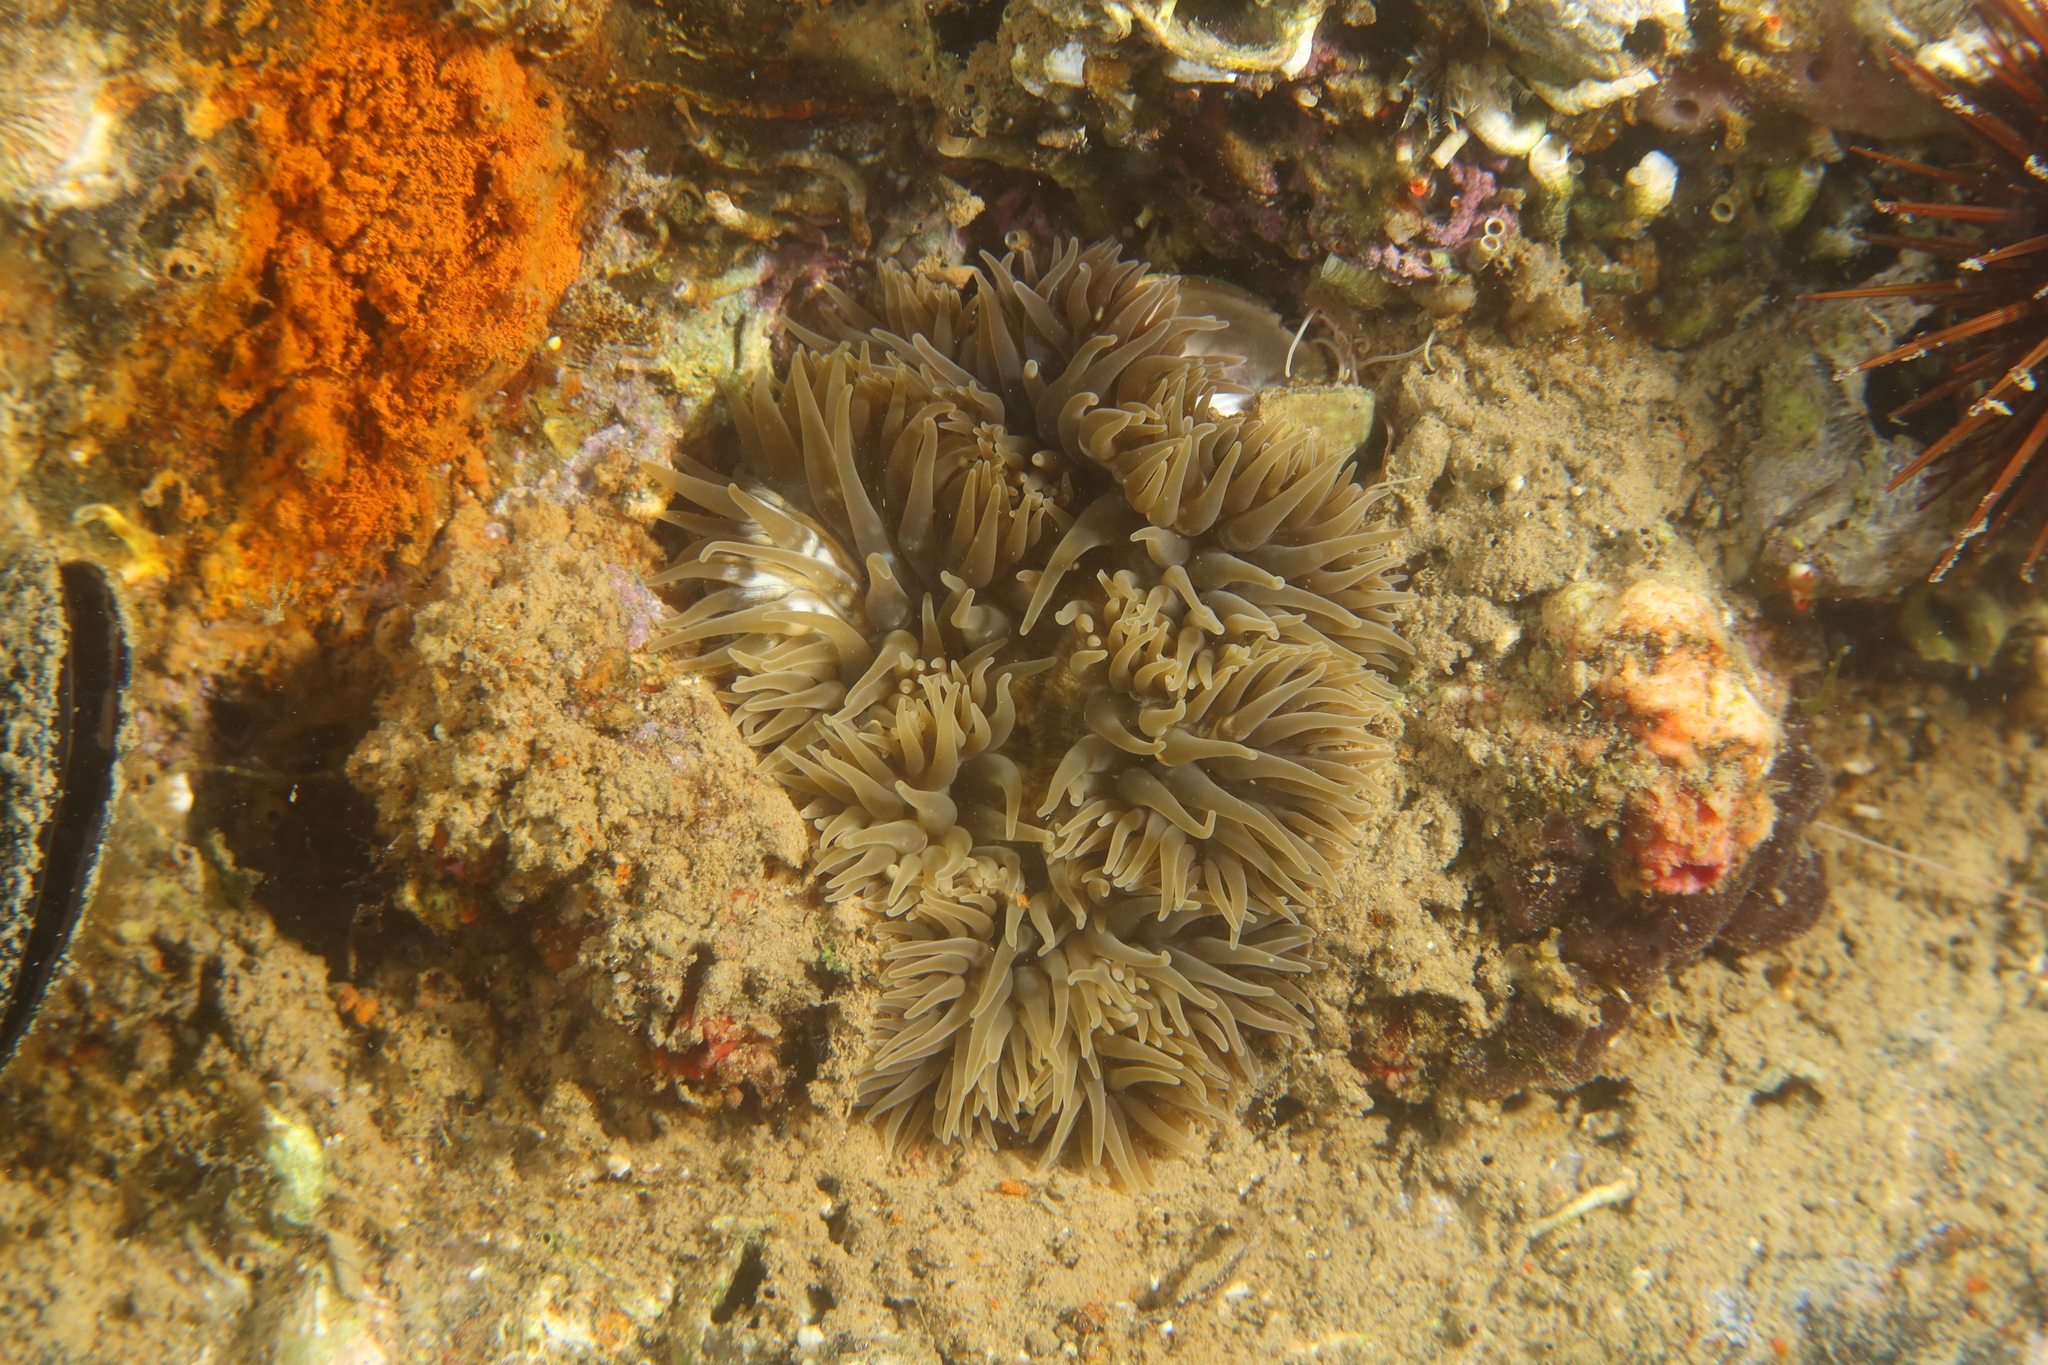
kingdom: Animalia
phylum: Cnidaria
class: Anthozoa
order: Actiniaria
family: Sagartiidae
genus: Cereus
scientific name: Cereus pedunculatus
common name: Daisy anemone
